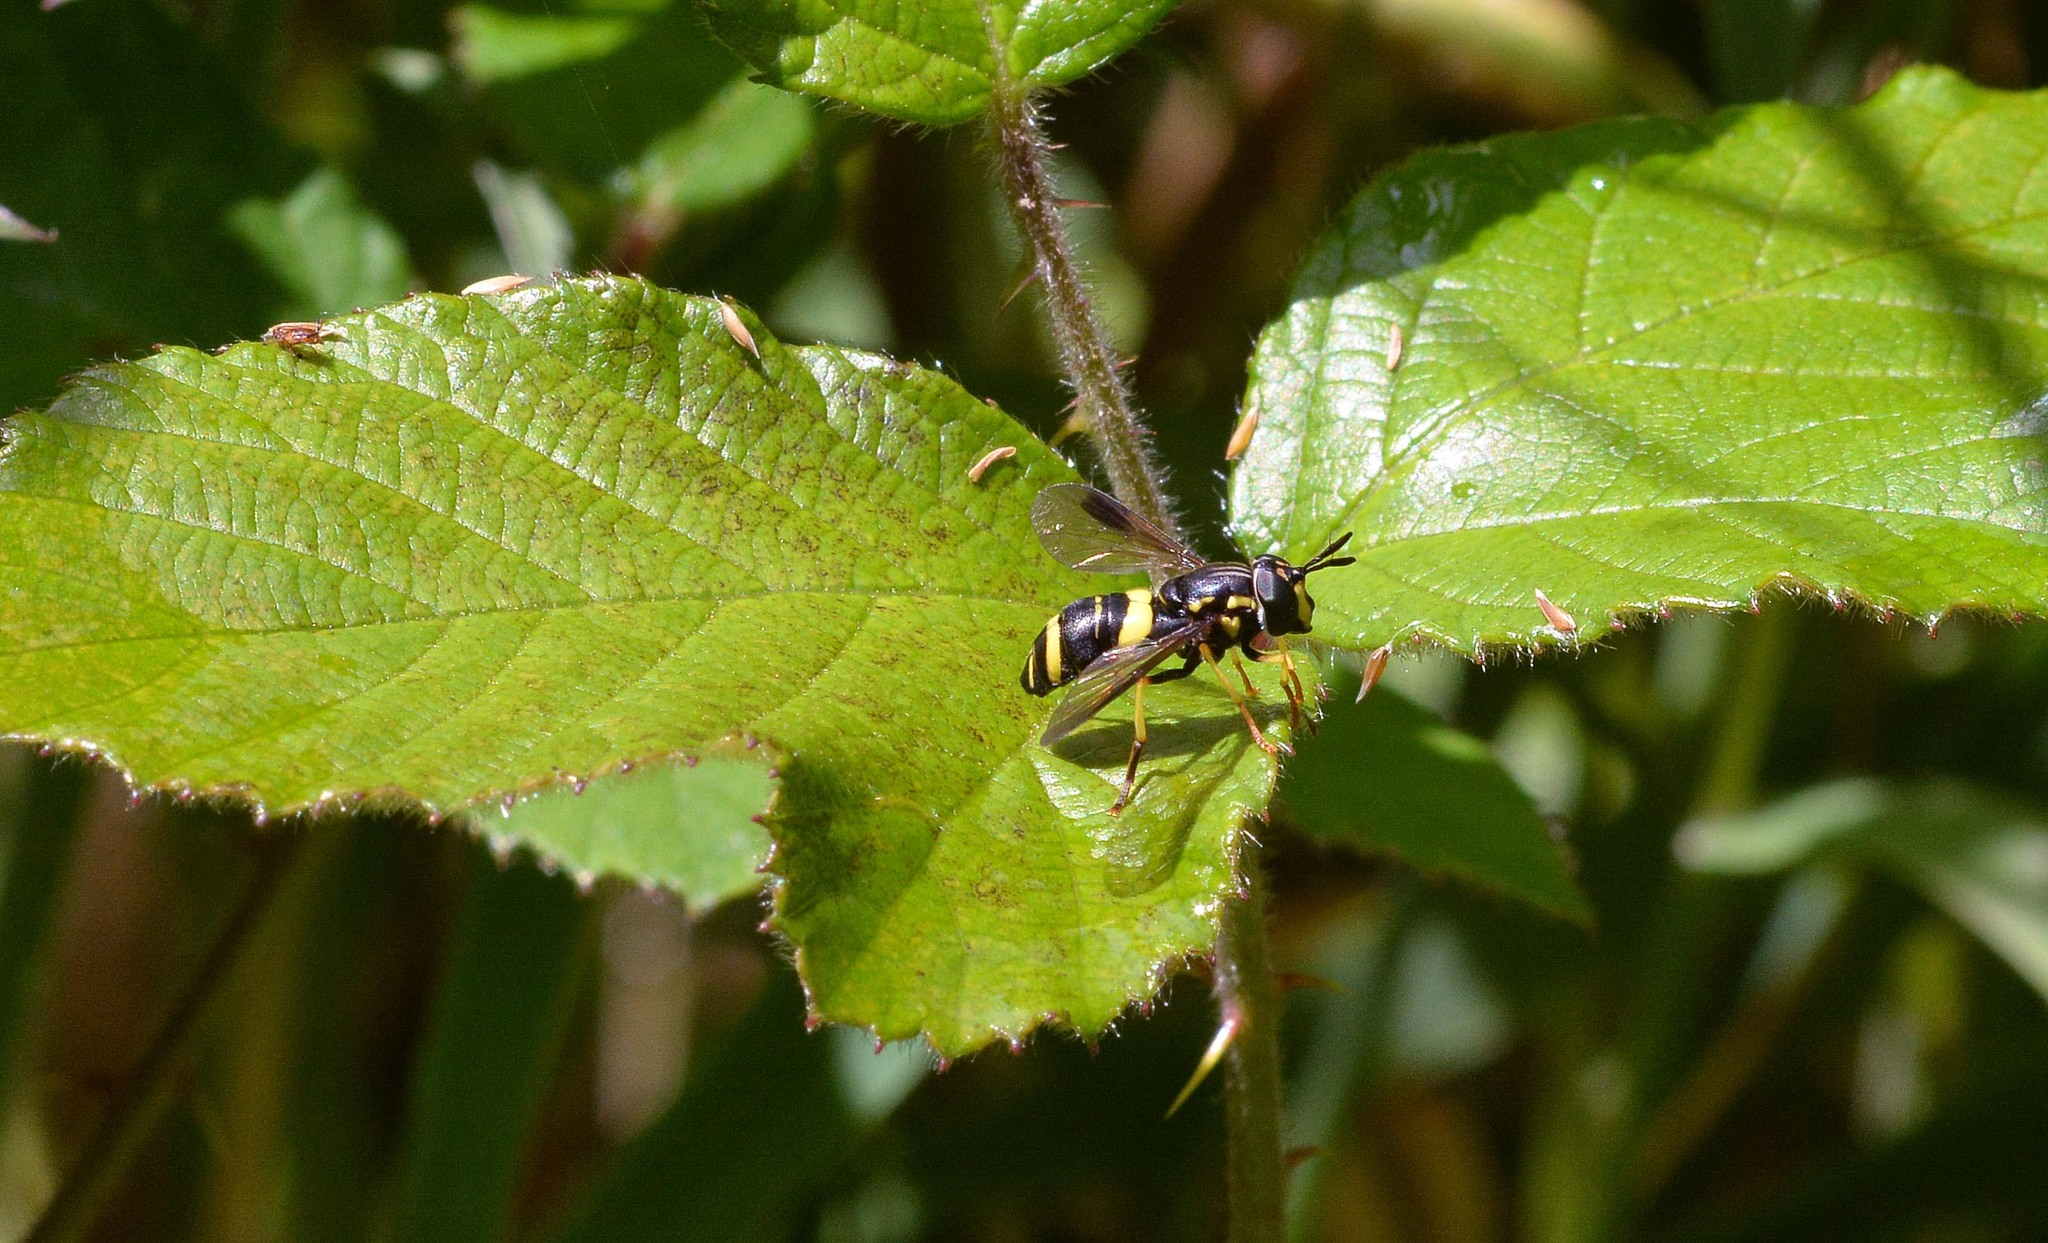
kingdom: Animalia
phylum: Arthropoda
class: Insecta
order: Diptera
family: Syrphidae
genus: Chrysotoxum
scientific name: Chrysotoxum bicincta
